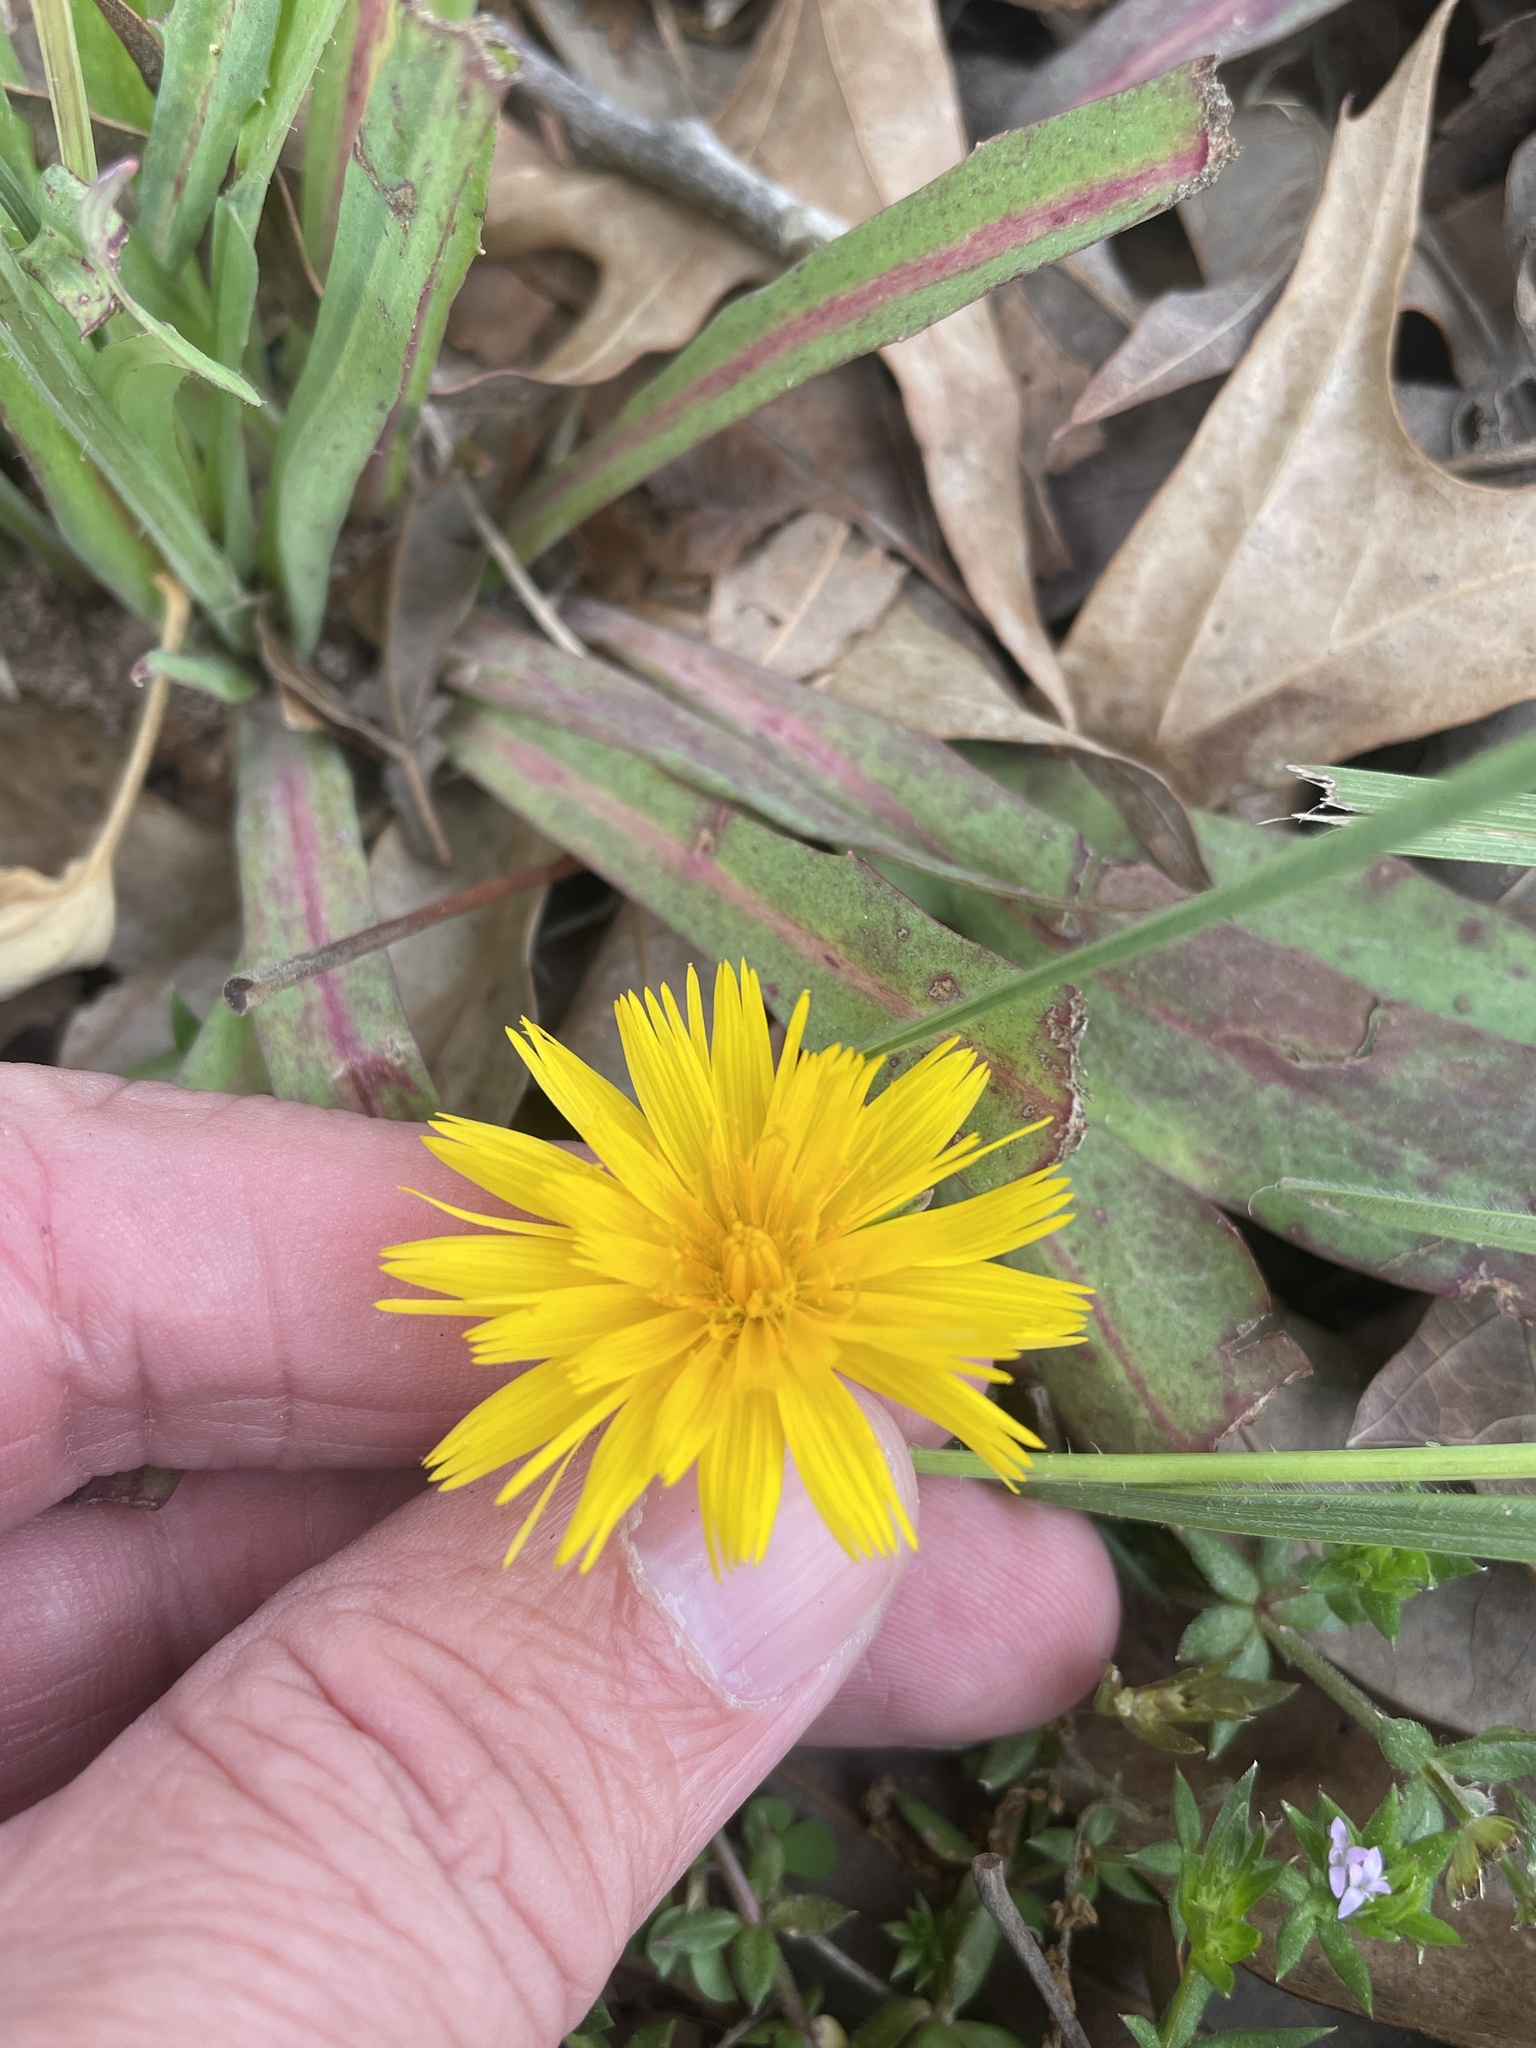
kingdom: Plantae
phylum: Tracheophyta
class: Magnoliopsida
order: Asterales
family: Asteraceae
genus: Krigia
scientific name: Krigia dandelion
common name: Colonial dwarf-dandelion
